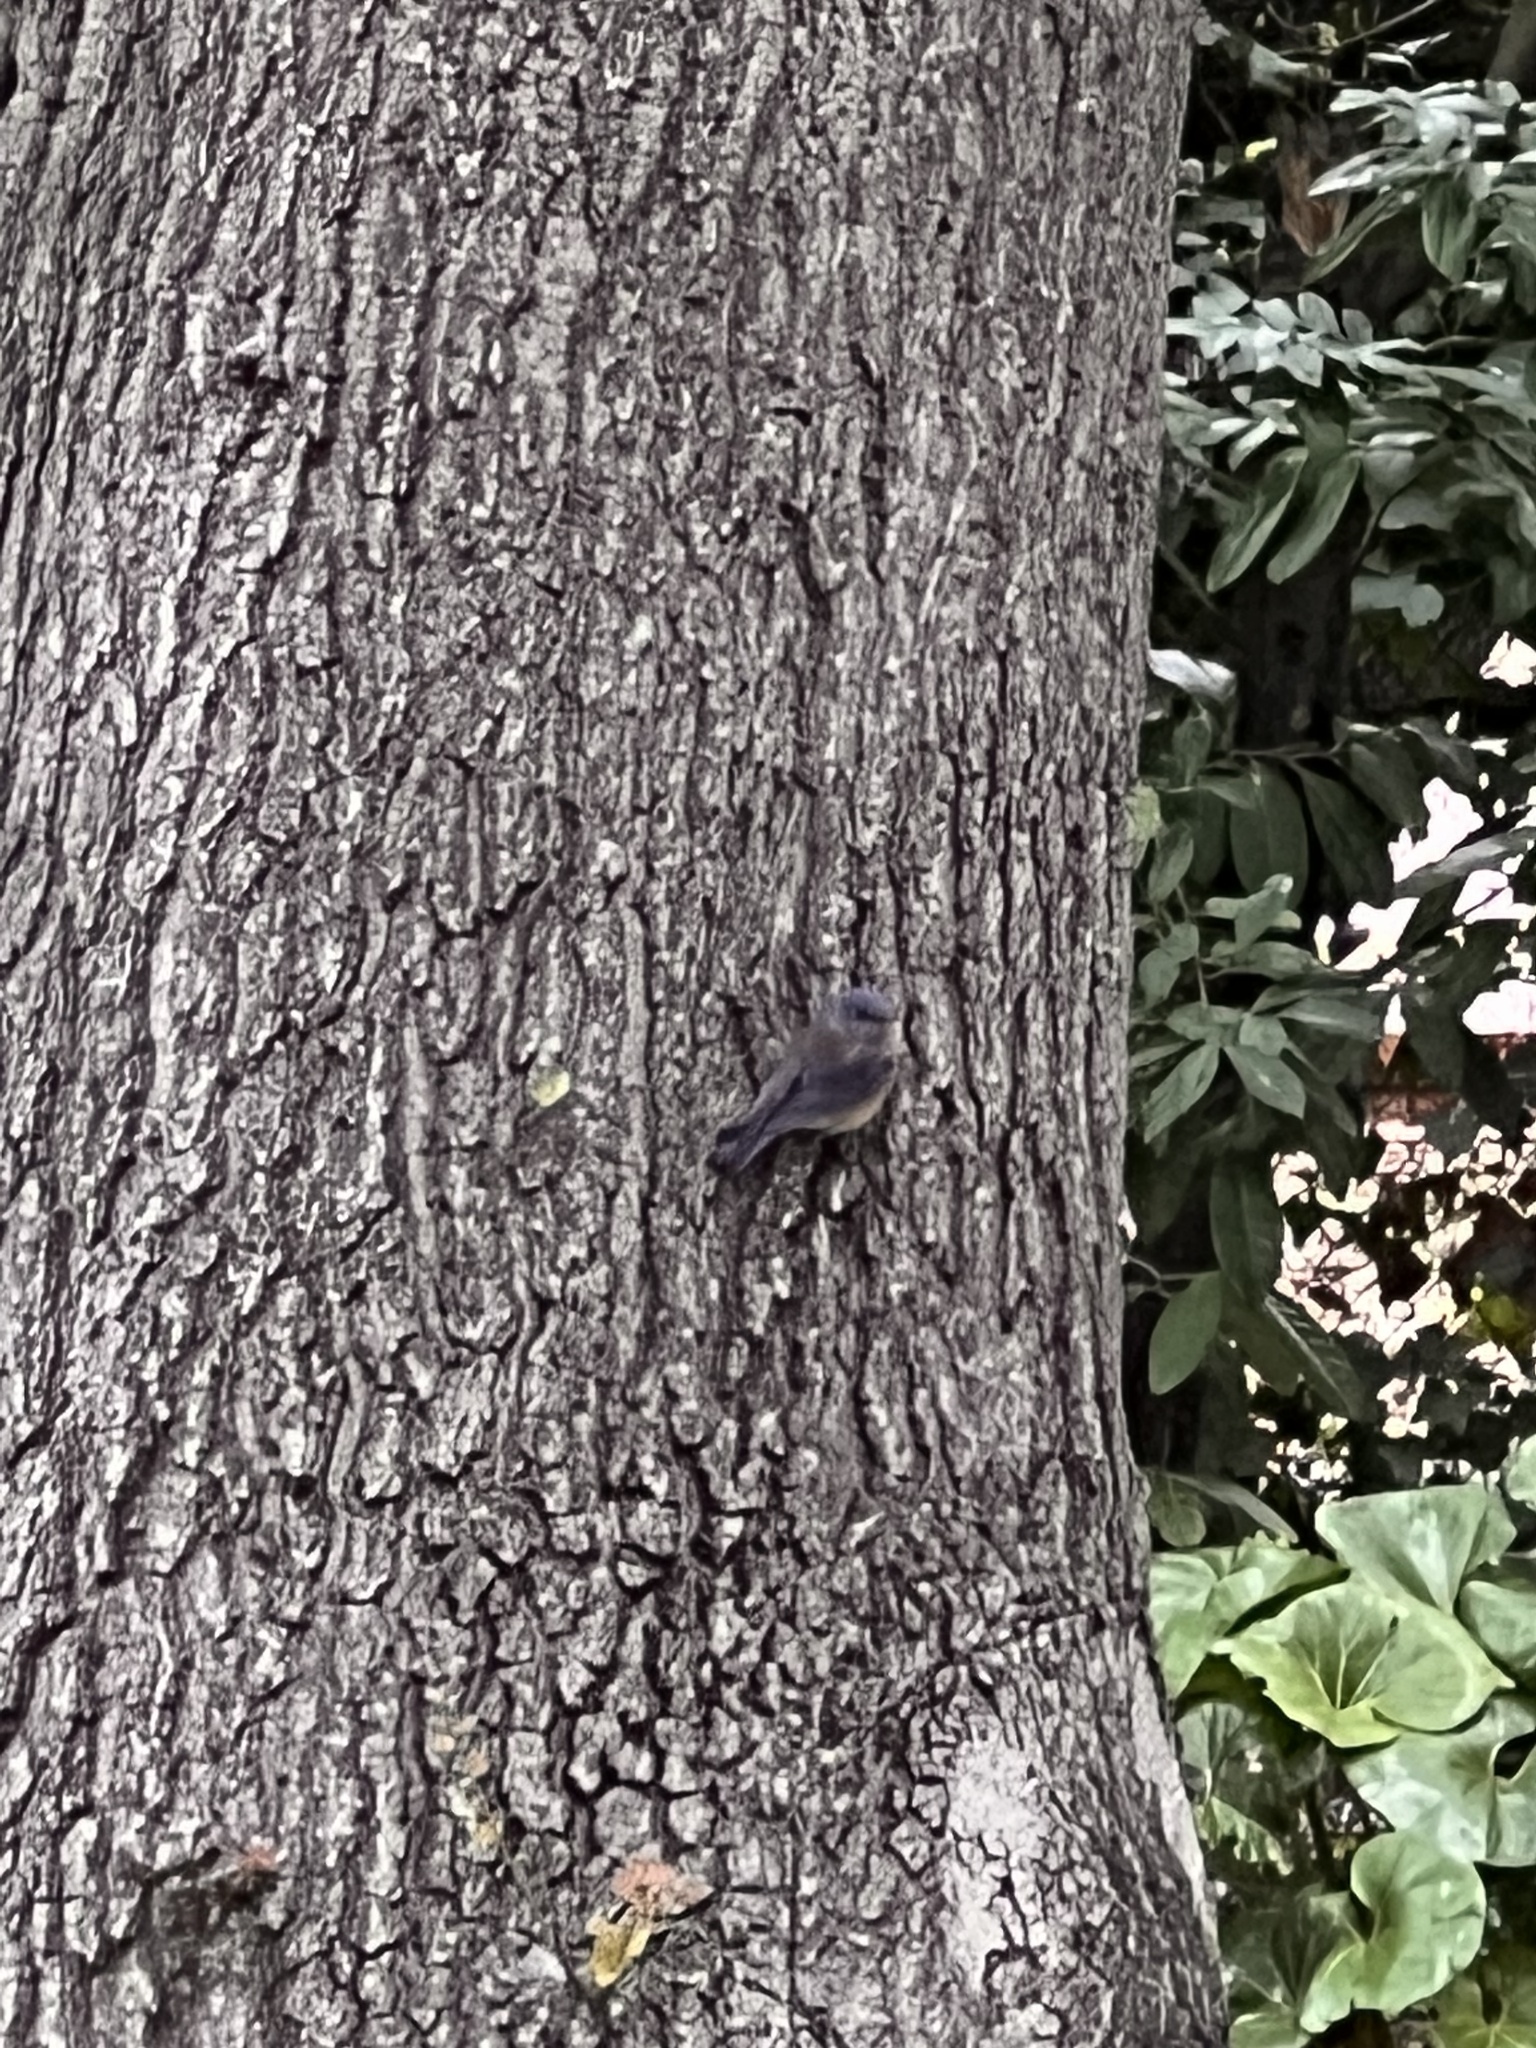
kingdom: Animalia
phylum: Chordata
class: Aves
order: Passeriformes
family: Turdidae
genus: Sialia
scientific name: Sialia mexicana
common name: Western bluebird
